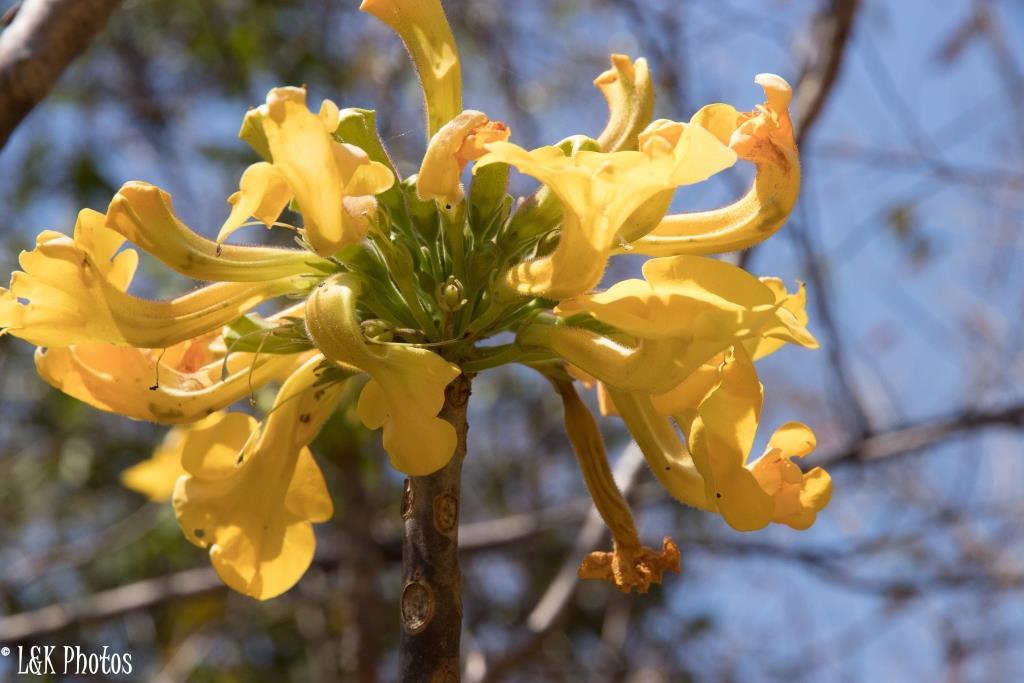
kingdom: Plantae
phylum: Tracheophyta
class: Magnoliopsida
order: Lamiales
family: Pedaliaceae
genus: Uncarina
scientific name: Uncarina leandrii
